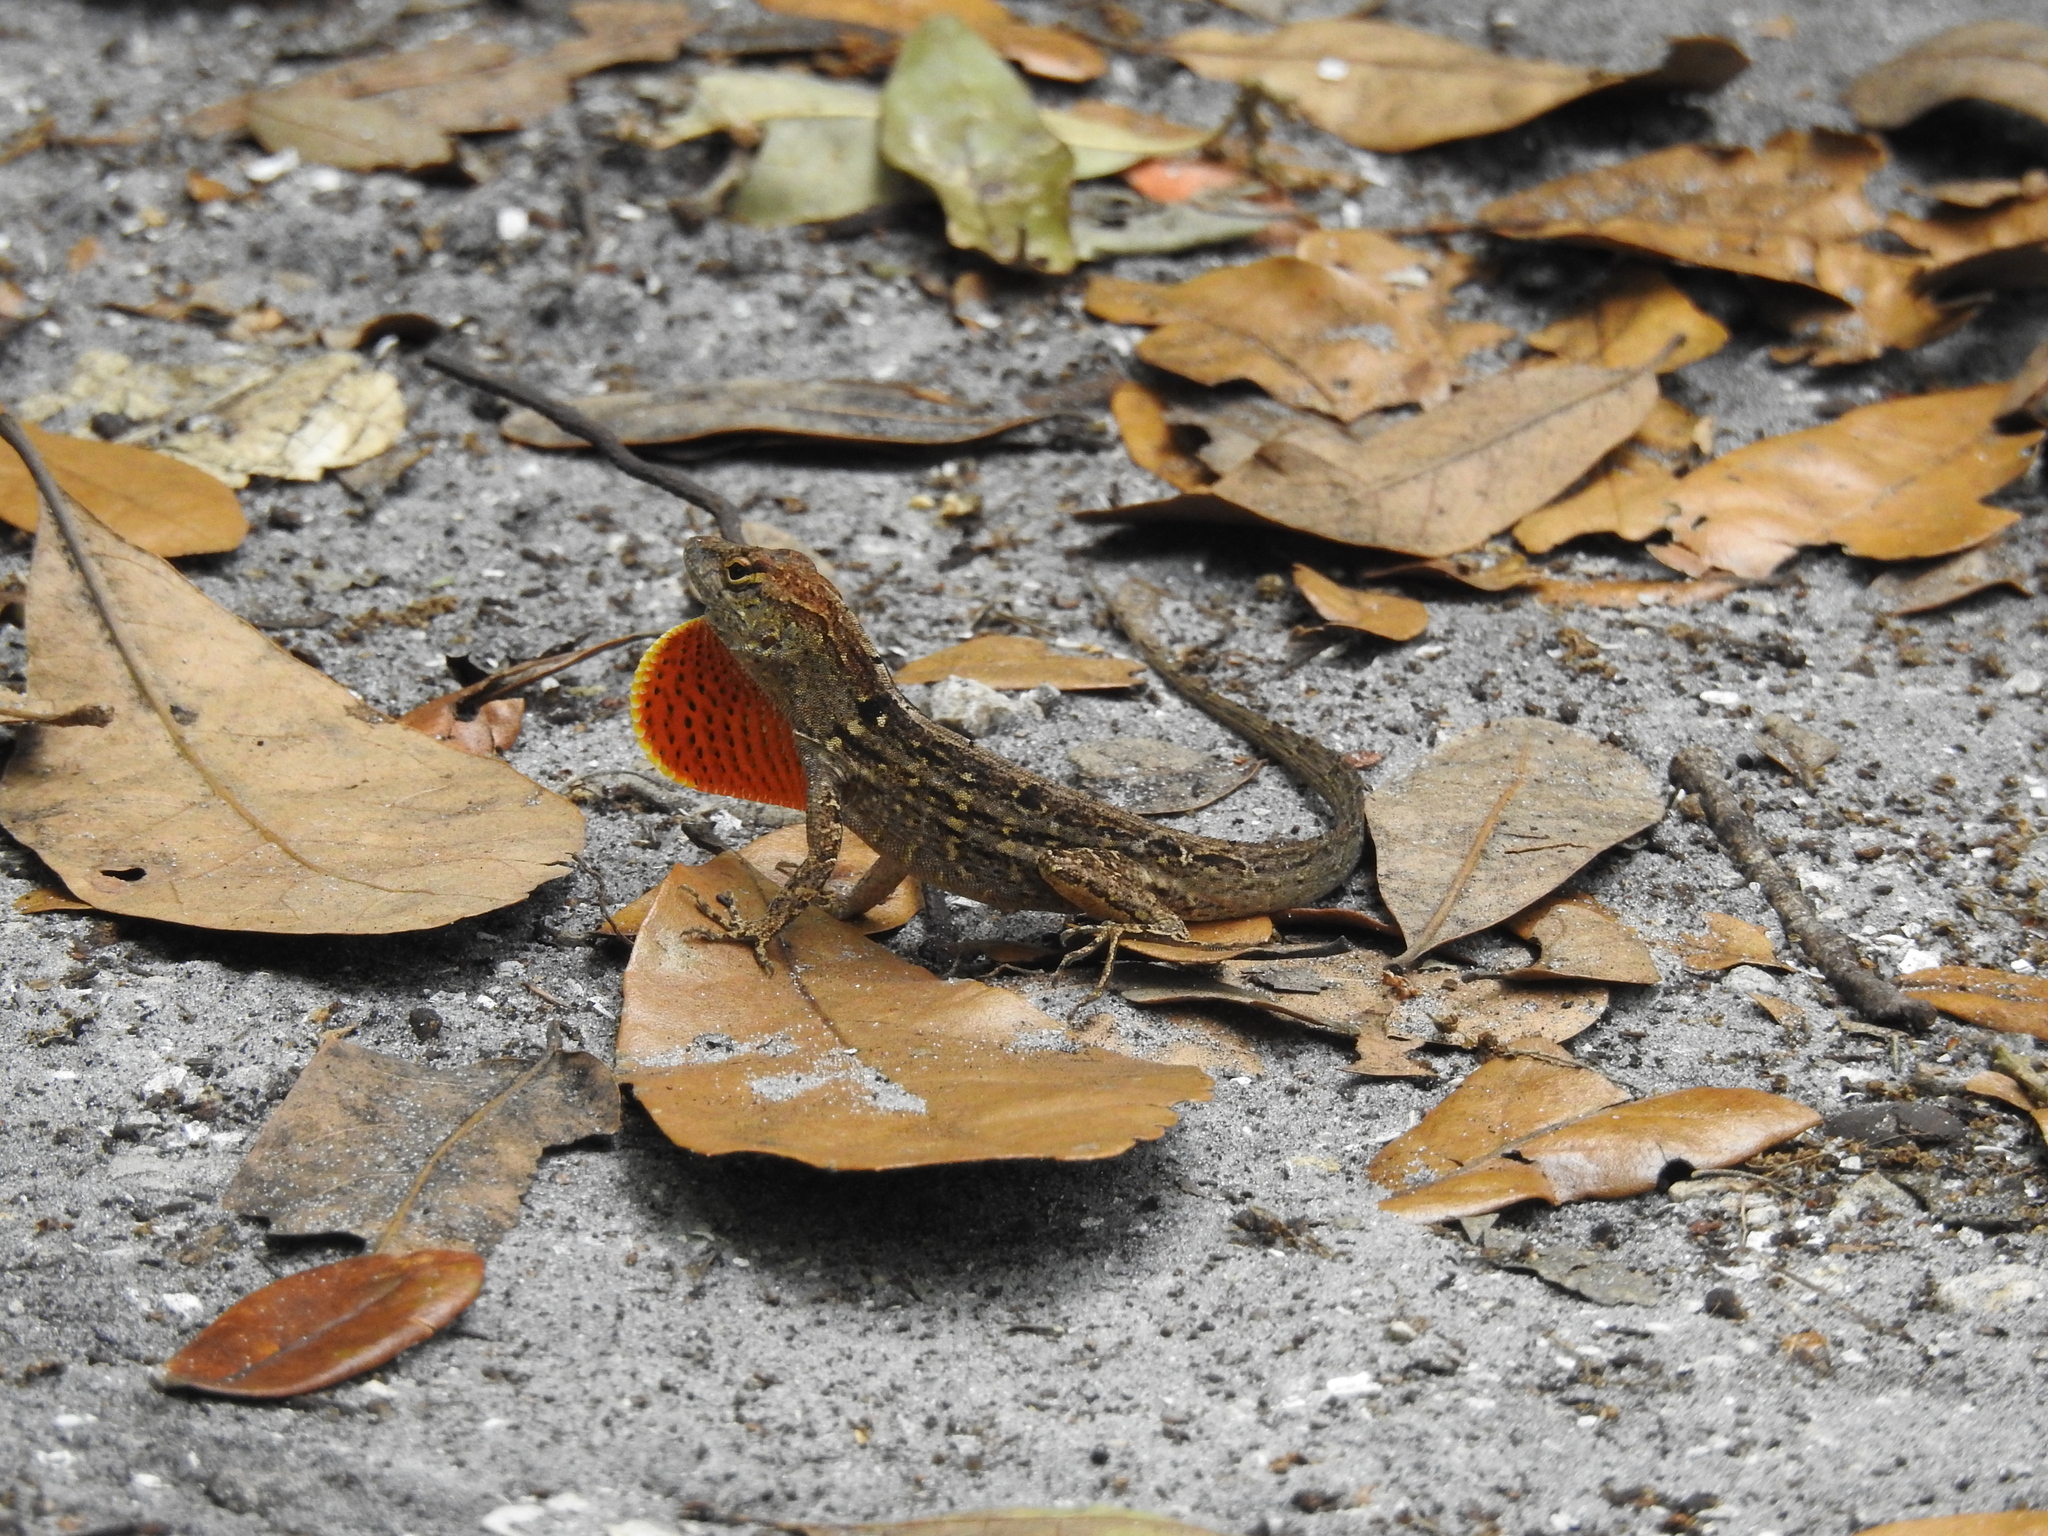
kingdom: Animalia
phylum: Chordata
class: Squamata
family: Dactyloidae
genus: Anolis
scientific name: Anolis sagrei
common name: Brown anole
